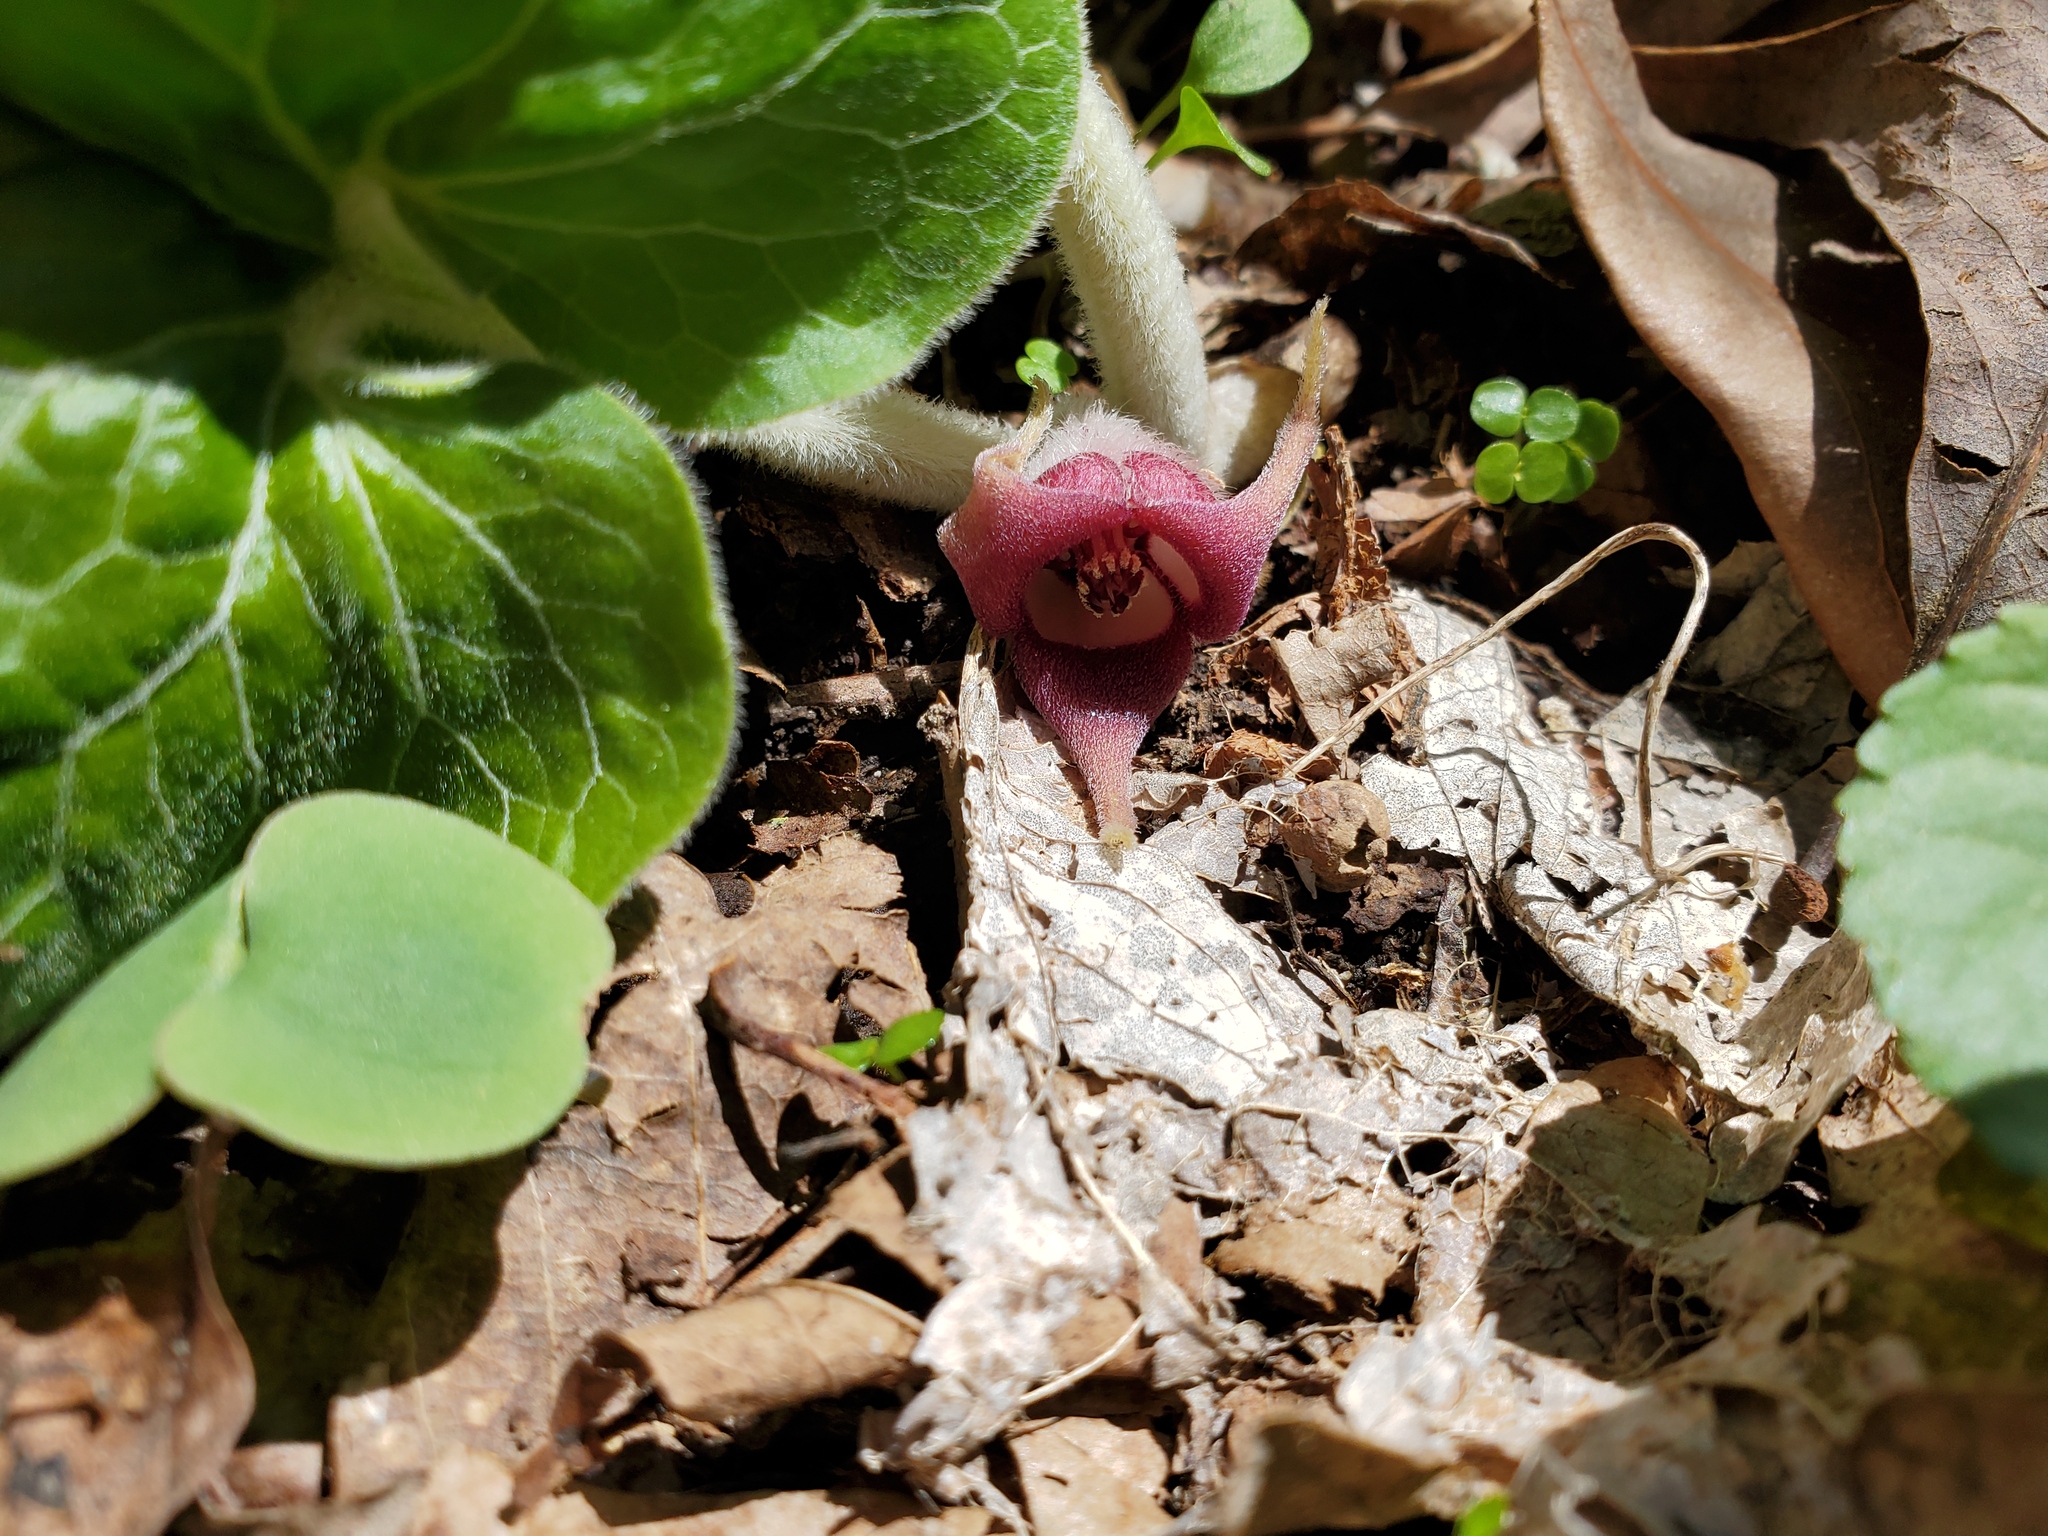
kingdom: Plantae
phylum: Tracheophyta
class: Magnoliopsida
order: Piperales
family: Aristolochiaceae
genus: Asarum
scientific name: Asarum canadense
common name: Wild ginger
